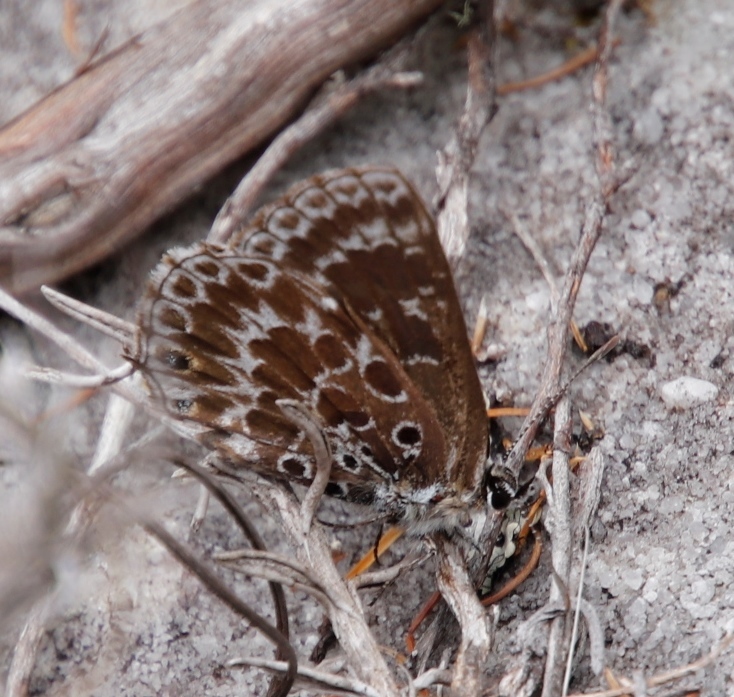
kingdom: Animalia
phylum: Arthropoda
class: Insecta
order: Lepidoptera
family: Lycaenidae
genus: Lepidochrysops
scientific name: Lepidochrysops trimeni
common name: Trimen's blue
